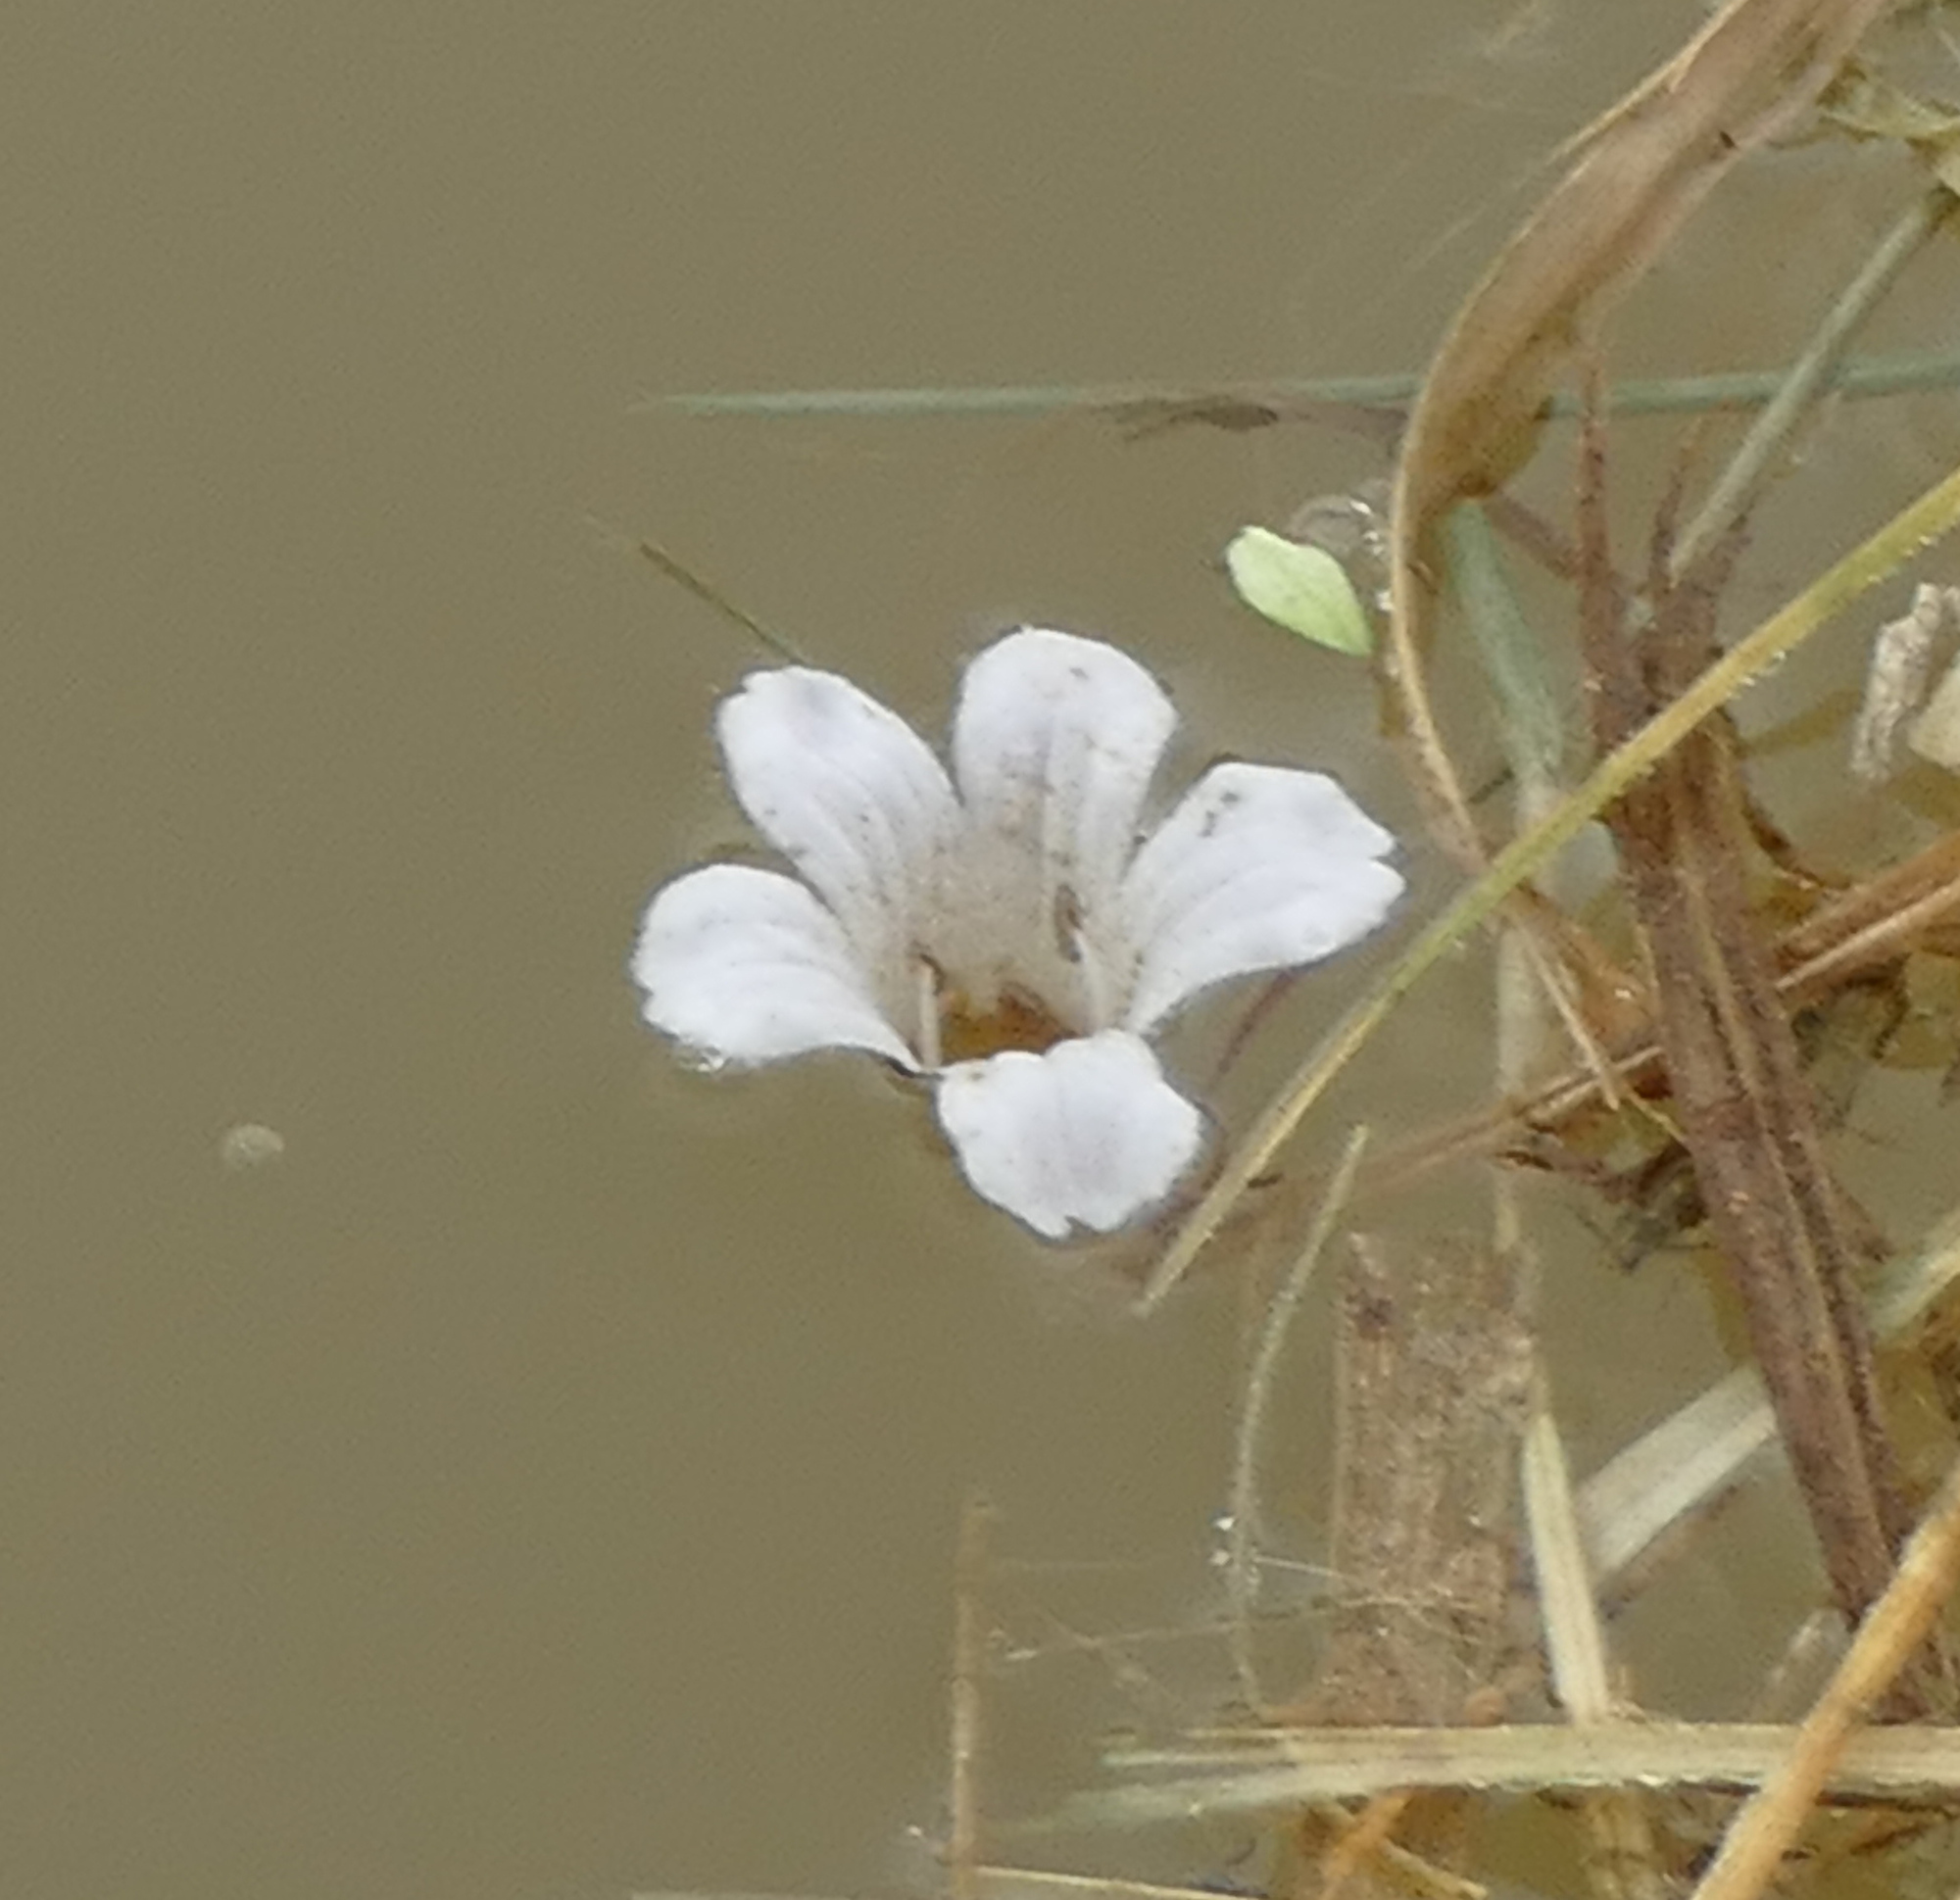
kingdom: Plantae
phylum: Tracheophyta
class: Magnoliopsida
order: Lamiales
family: Plantaginaceae
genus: Bacopa
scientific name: Bacopa monnieri
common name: Indian-pennywort
